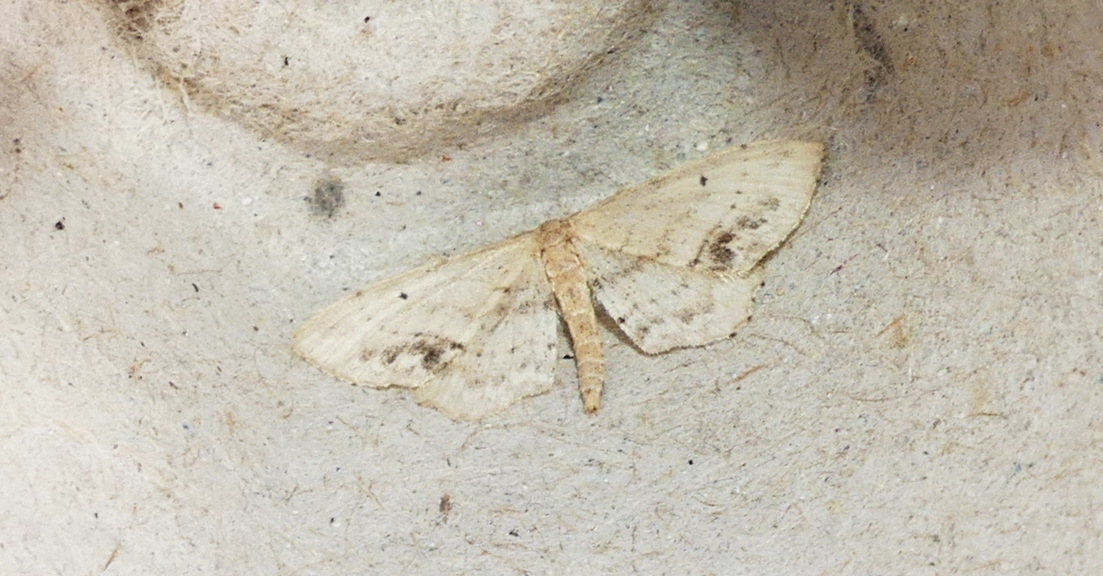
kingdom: Animalia
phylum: Arthropoda
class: Insecta
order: Lepidoptera
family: Geometridae
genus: Idaea
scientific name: Idaea dimidiata
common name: Single-dotted wave
